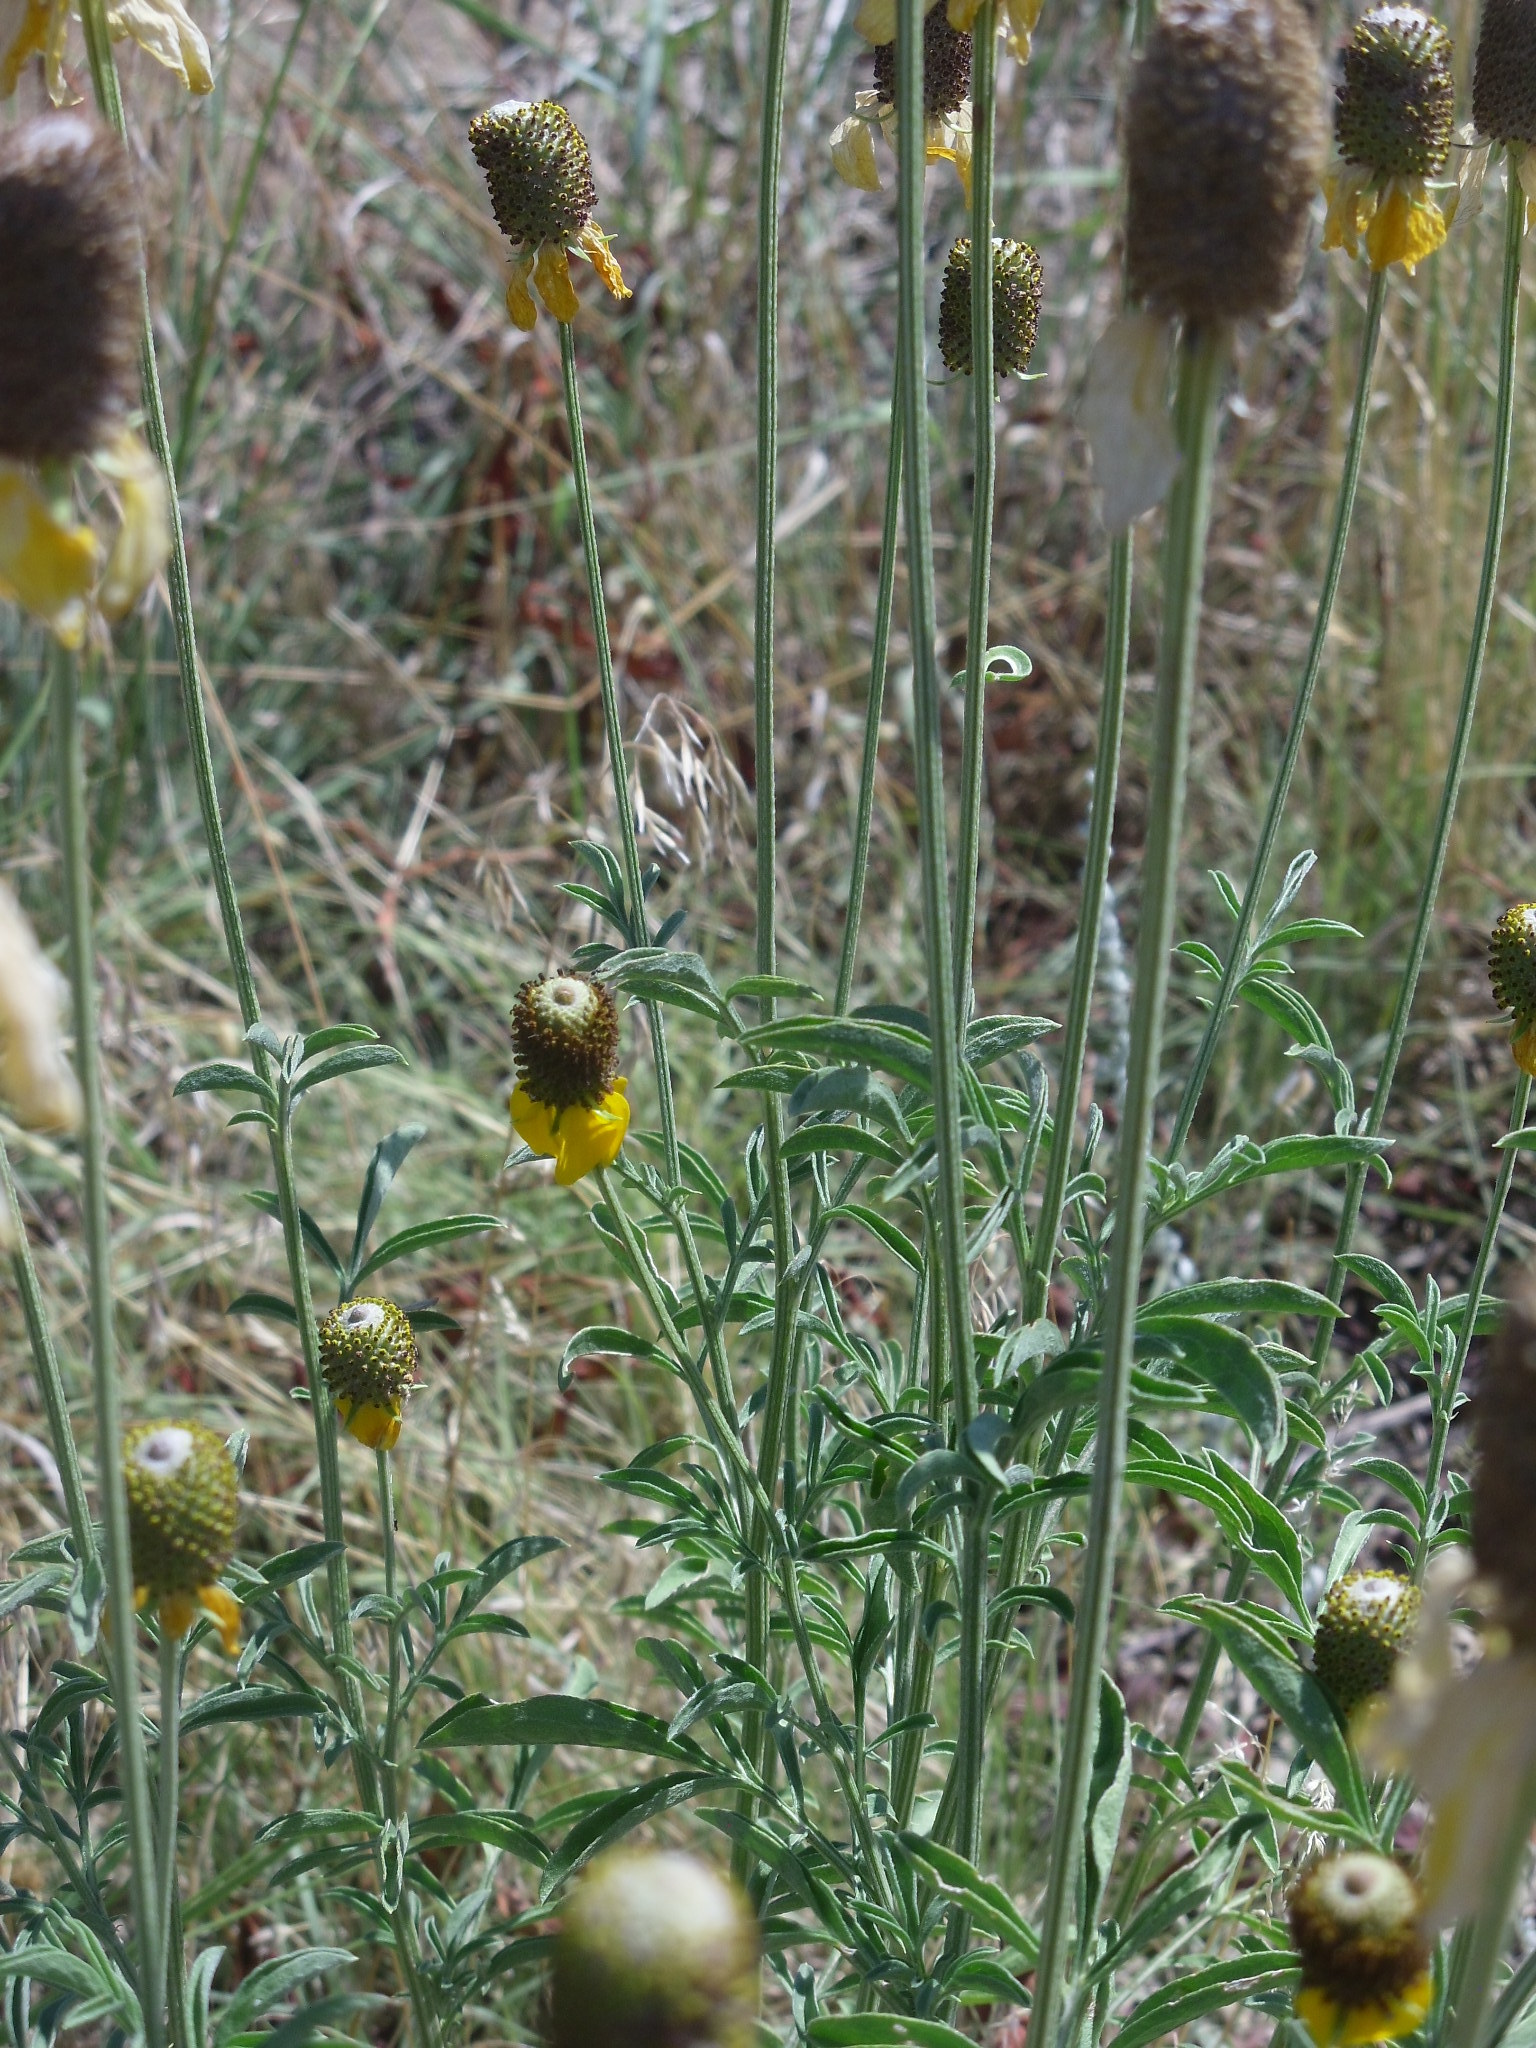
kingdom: Plantae
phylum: Tracheophyta
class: Magnoliopsida
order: Asterales
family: Asteraceae
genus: Ratibida
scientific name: Ratibida columnifera
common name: Prairie coneflower
